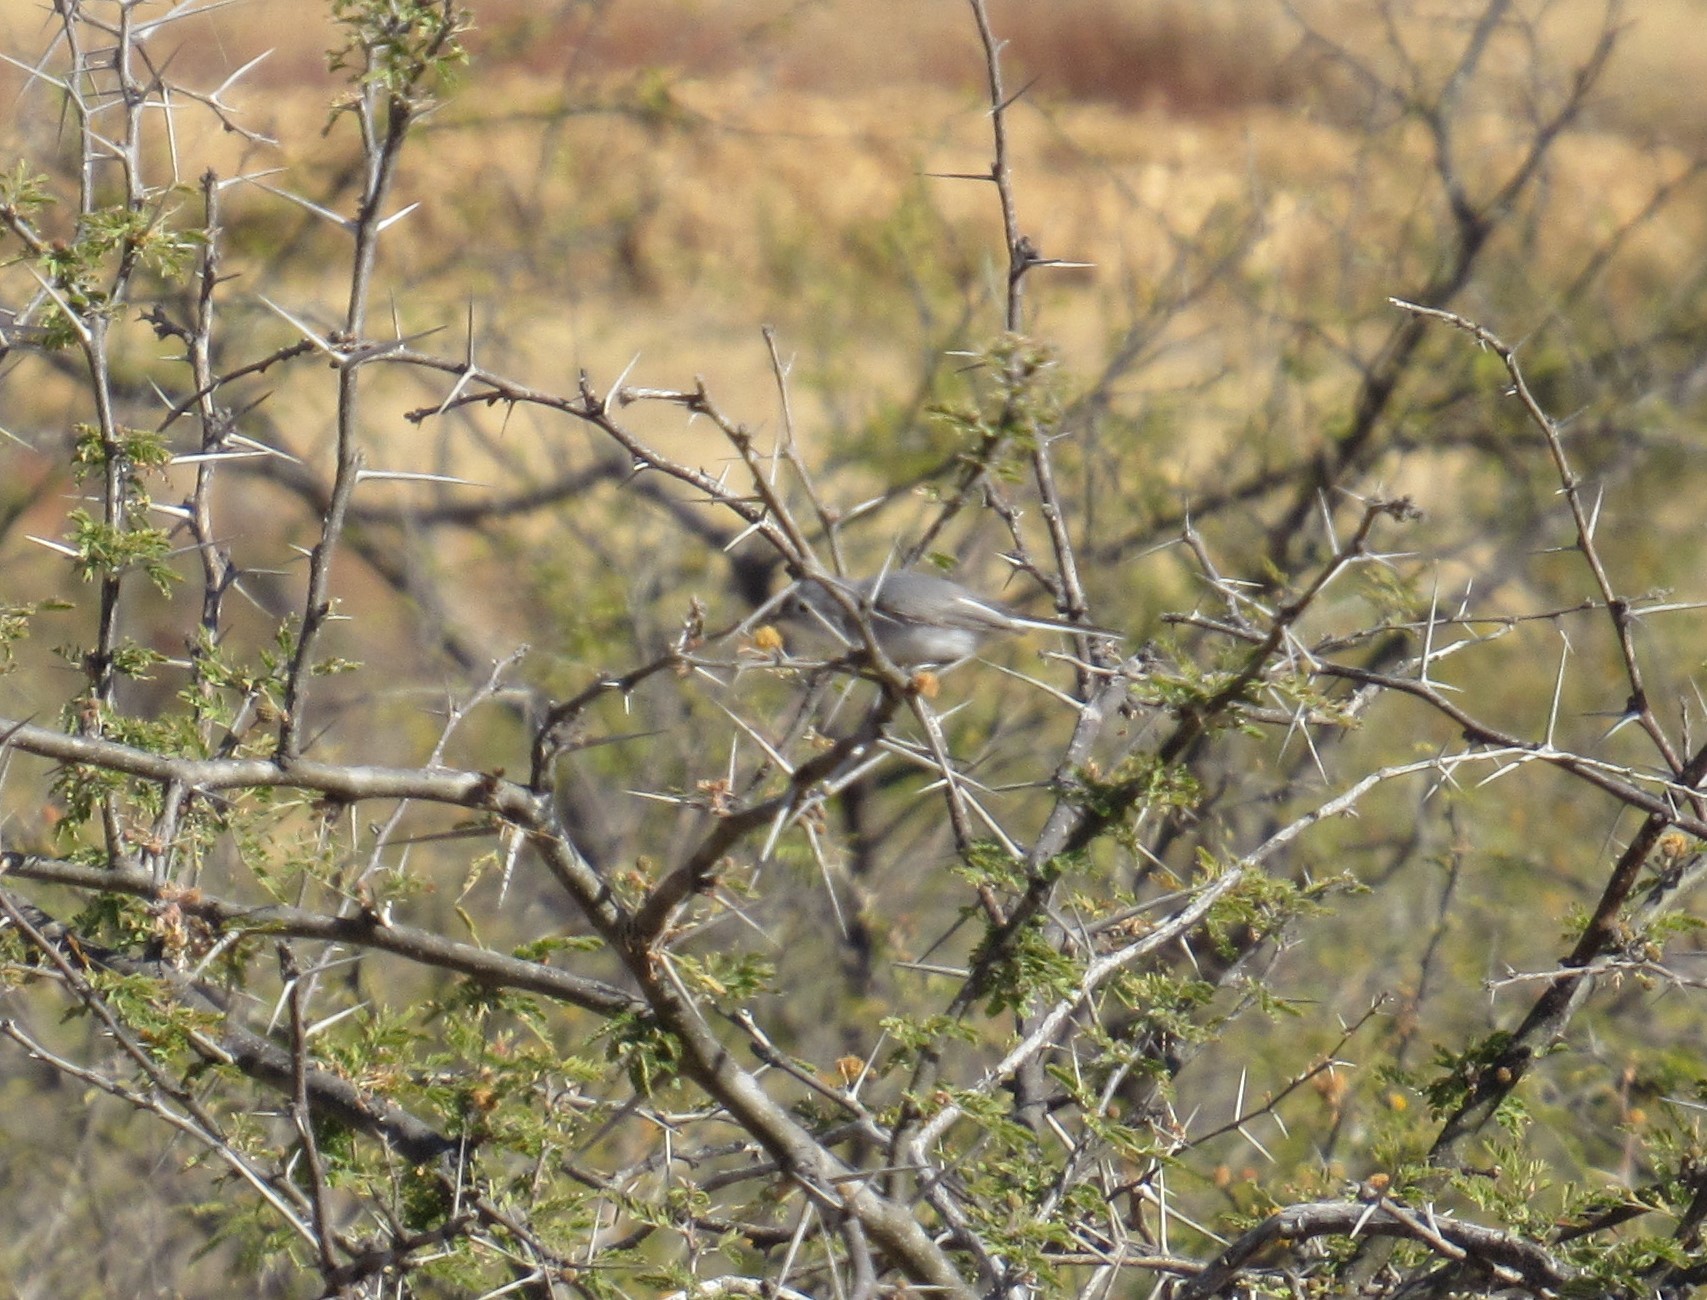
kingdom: Animalia
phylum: Chordata
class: Aves
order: Passeriformes
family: Polioptilidae
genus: Polioptila
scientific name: Polioptila caerulea
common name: Blue-gray gnatcatcher
